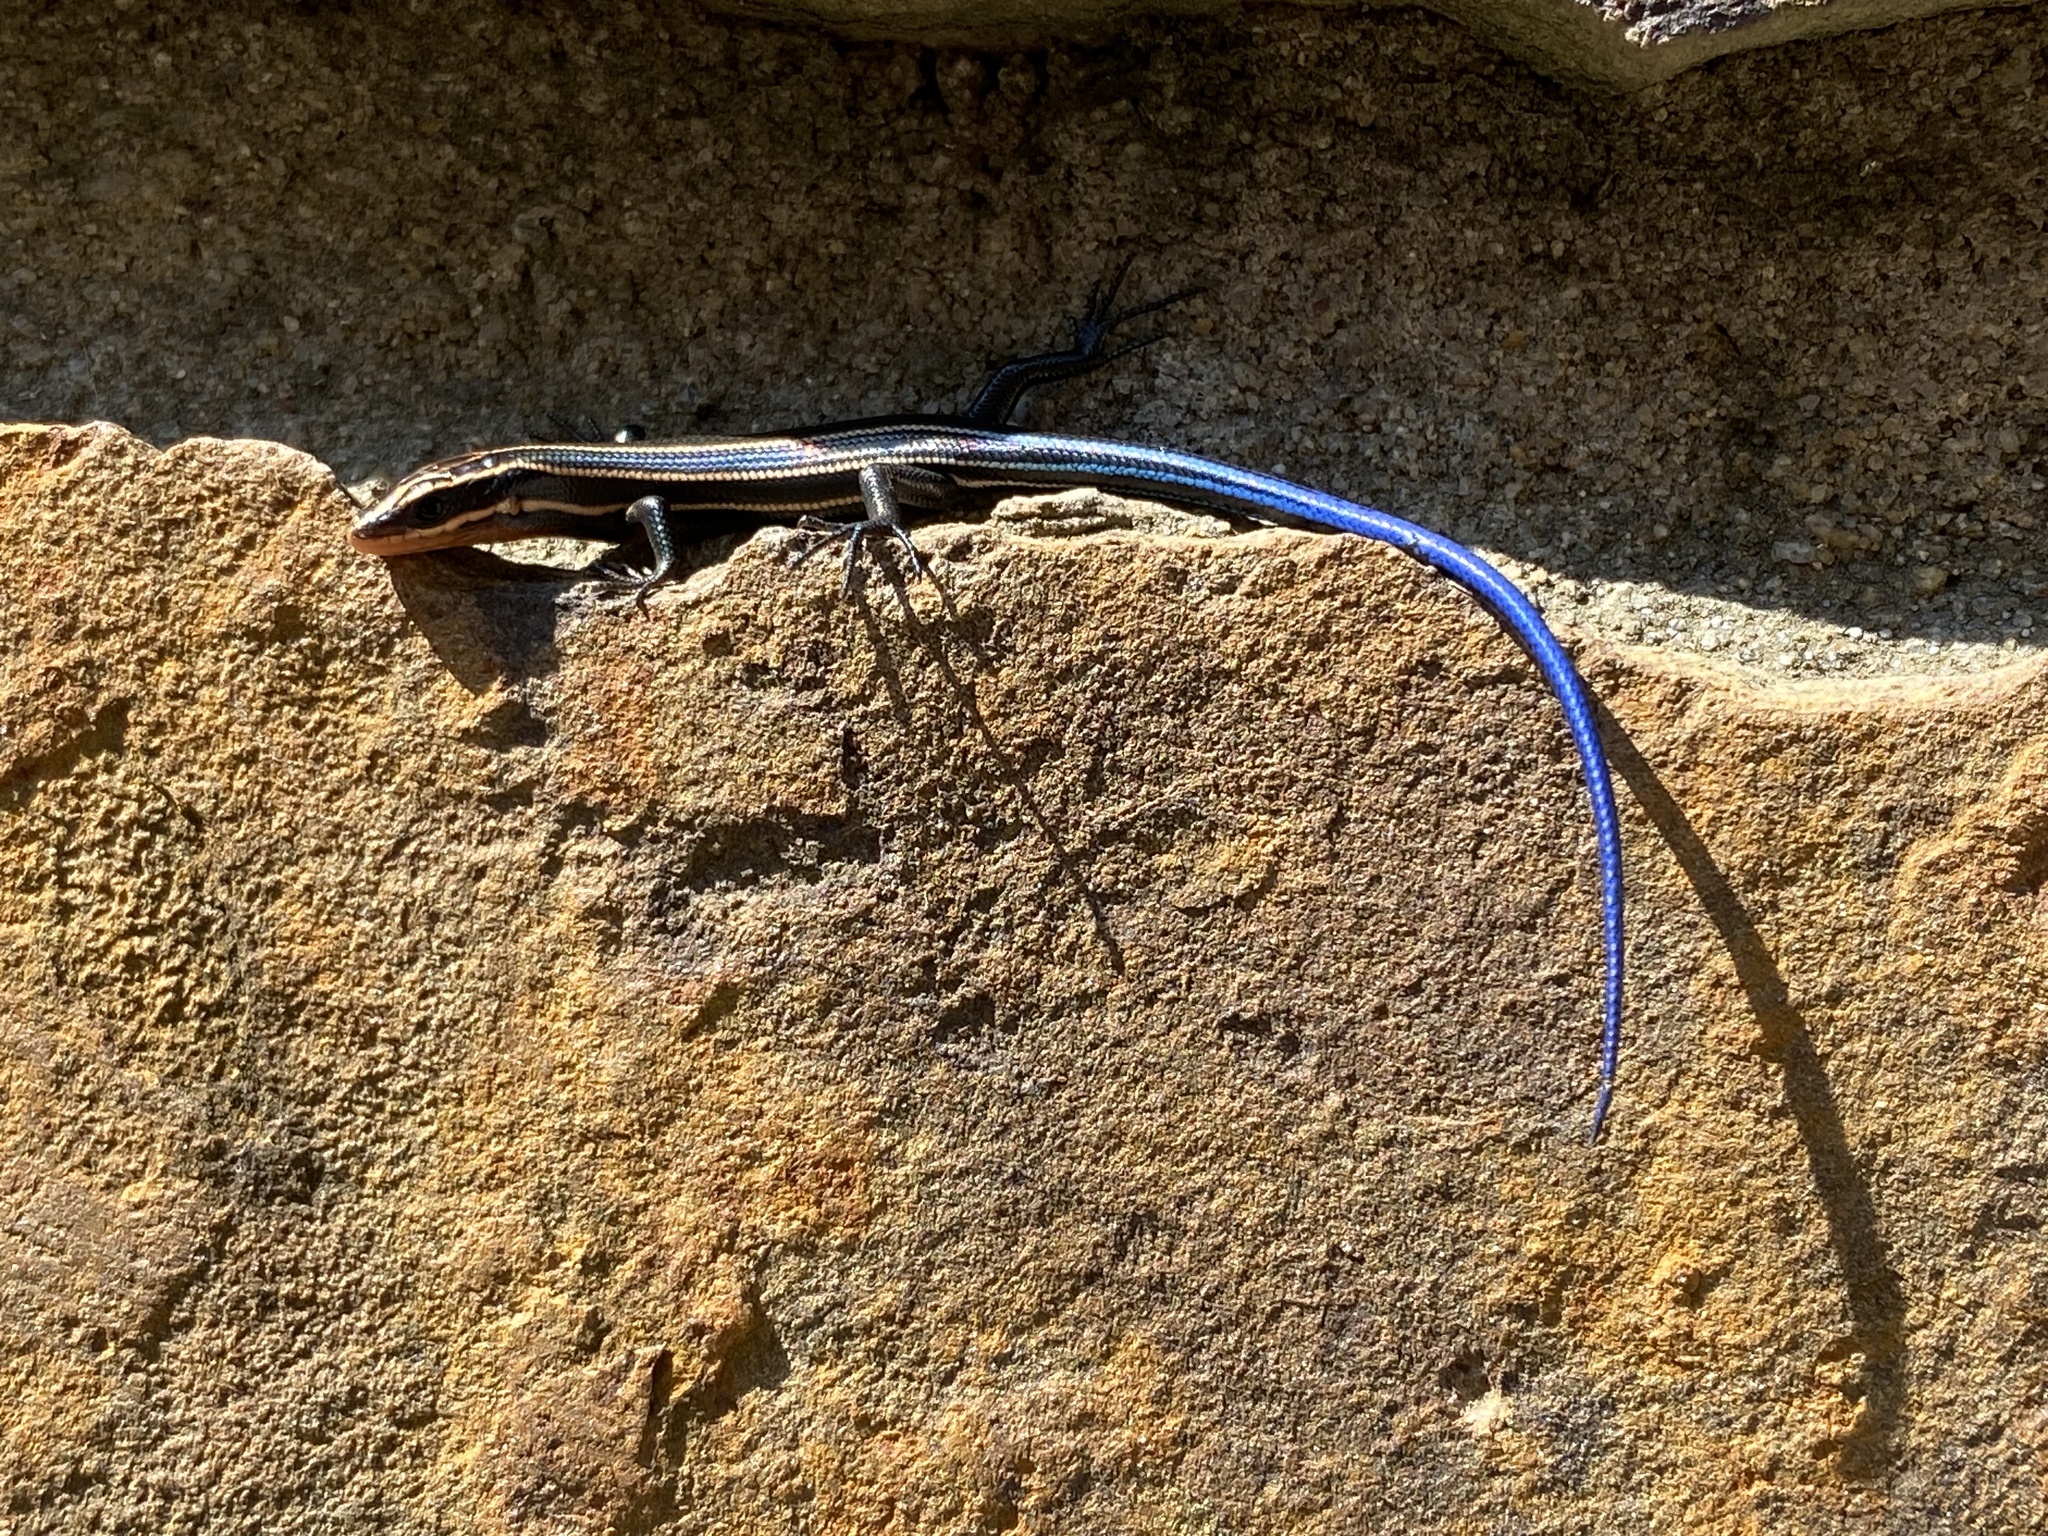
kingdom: Animalia
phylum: Chordata
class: Squamata
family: Scincidae
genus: Plestiodon
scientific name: Plestiodon fasciatus
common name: Five-lined skink
